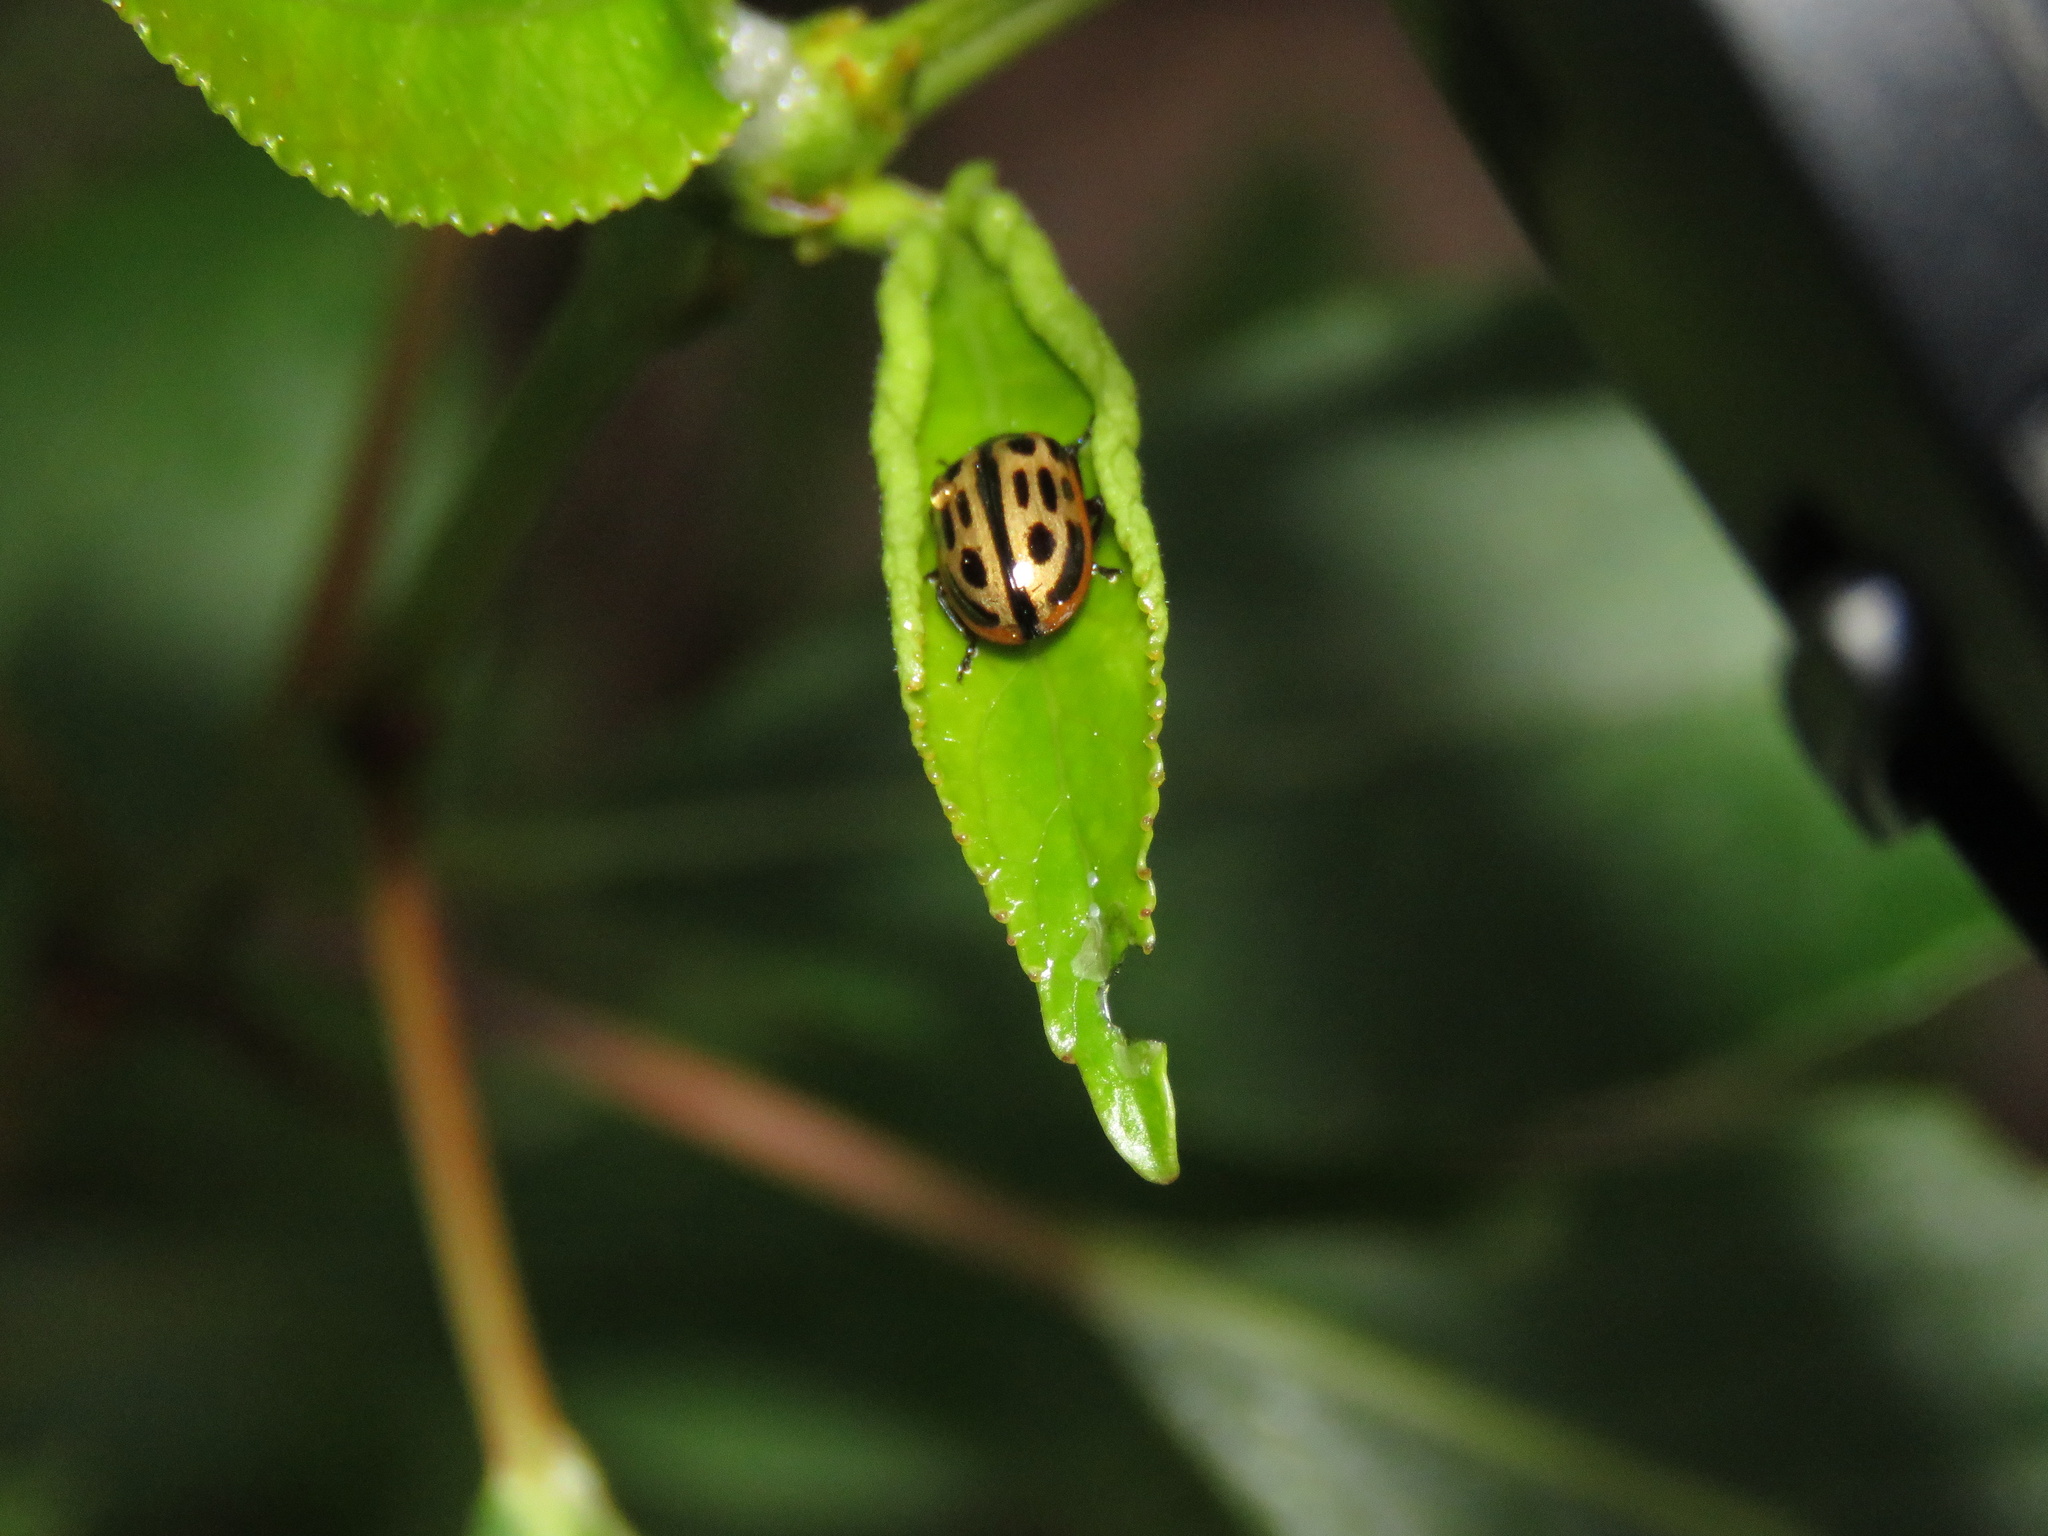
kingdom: Animalia
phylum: Arthropoda
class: Insecta
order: Coleoptera
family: Chrysomelidae
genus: Aethiopocassis
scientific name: Aethiopocassis scripta
